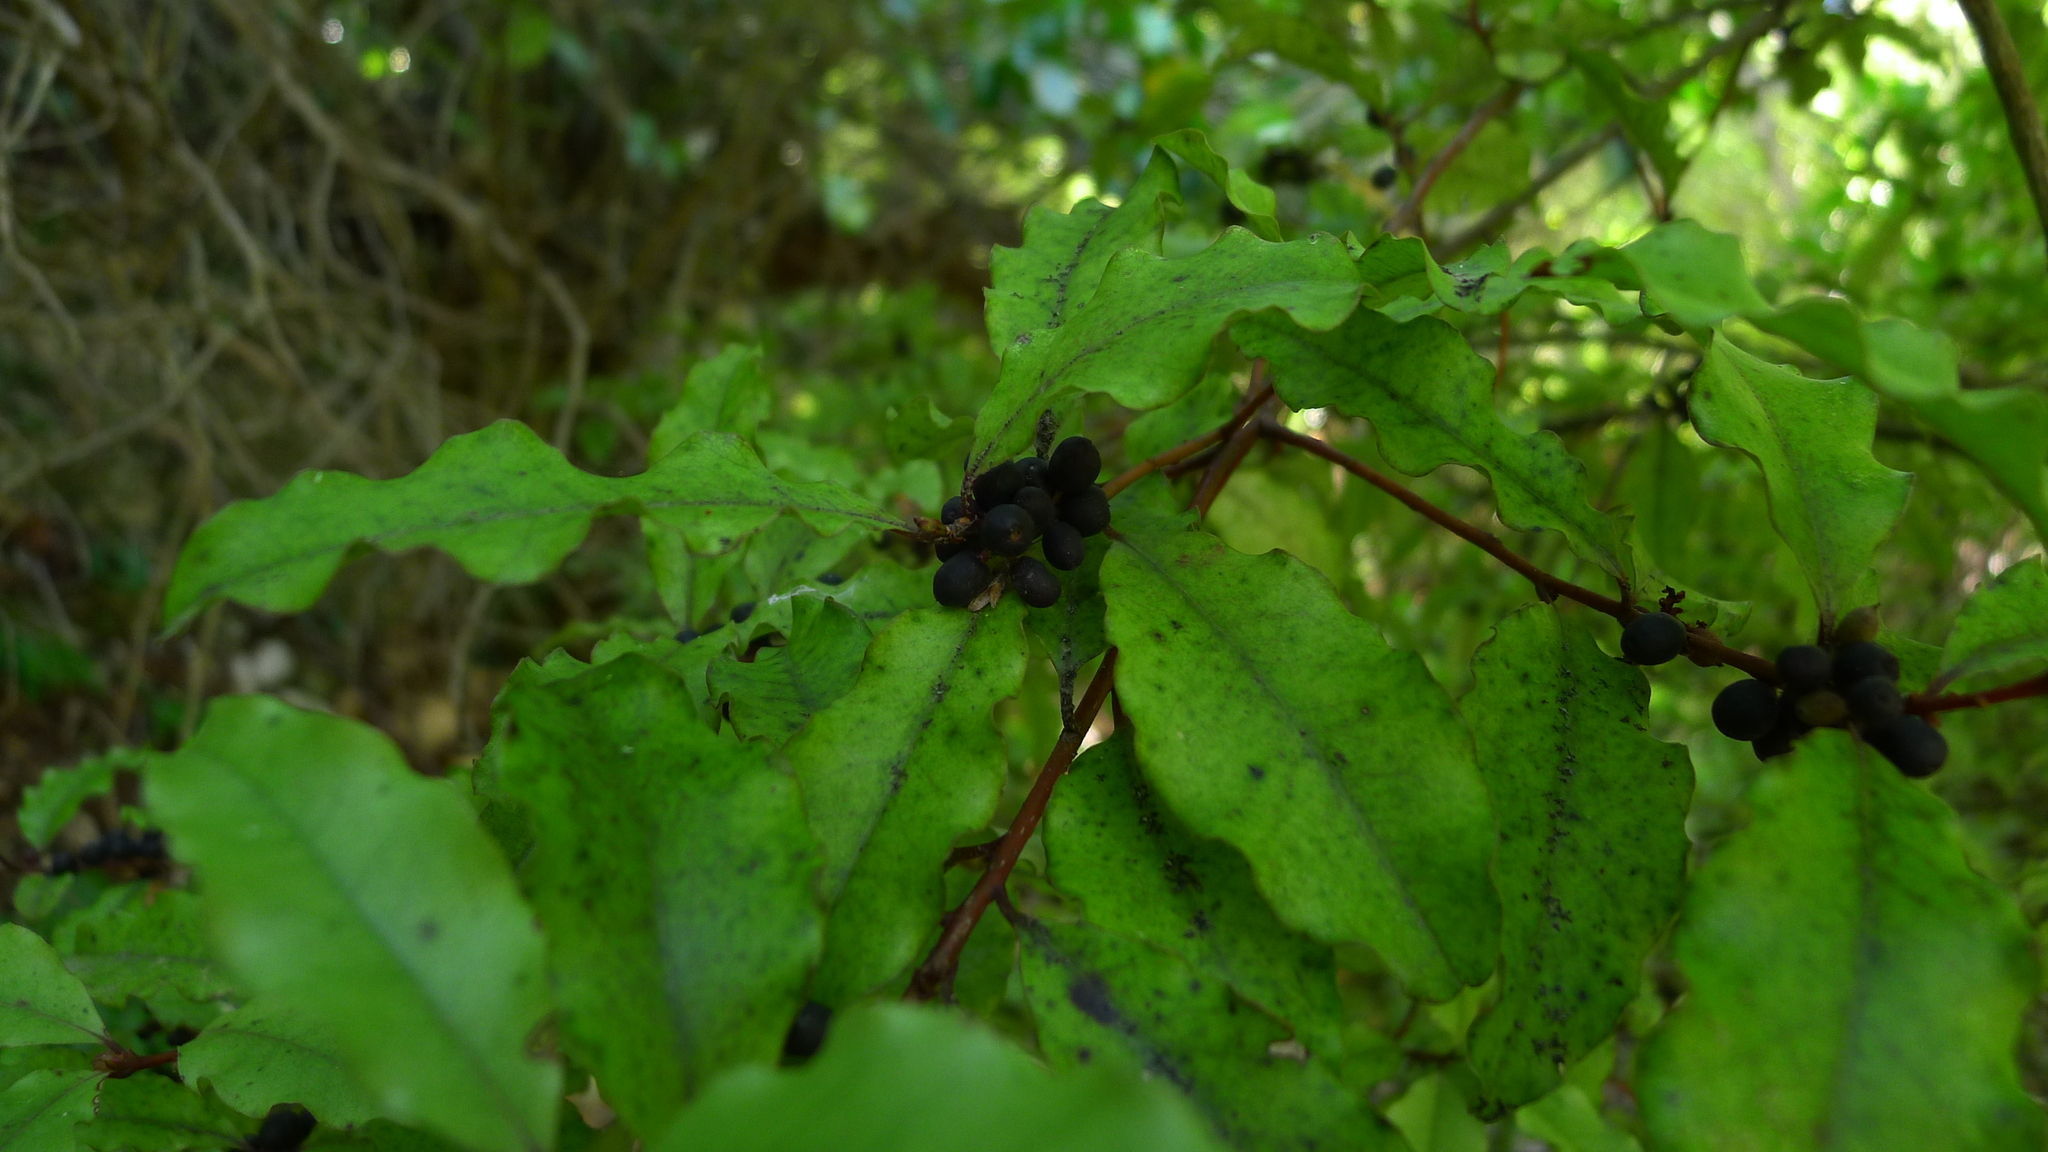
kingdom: Plantae
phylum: Tracheophyta
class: Magnoliopsida
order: Ericales
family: Primulaceae
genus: Myrsine
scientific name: Myrsine australis
